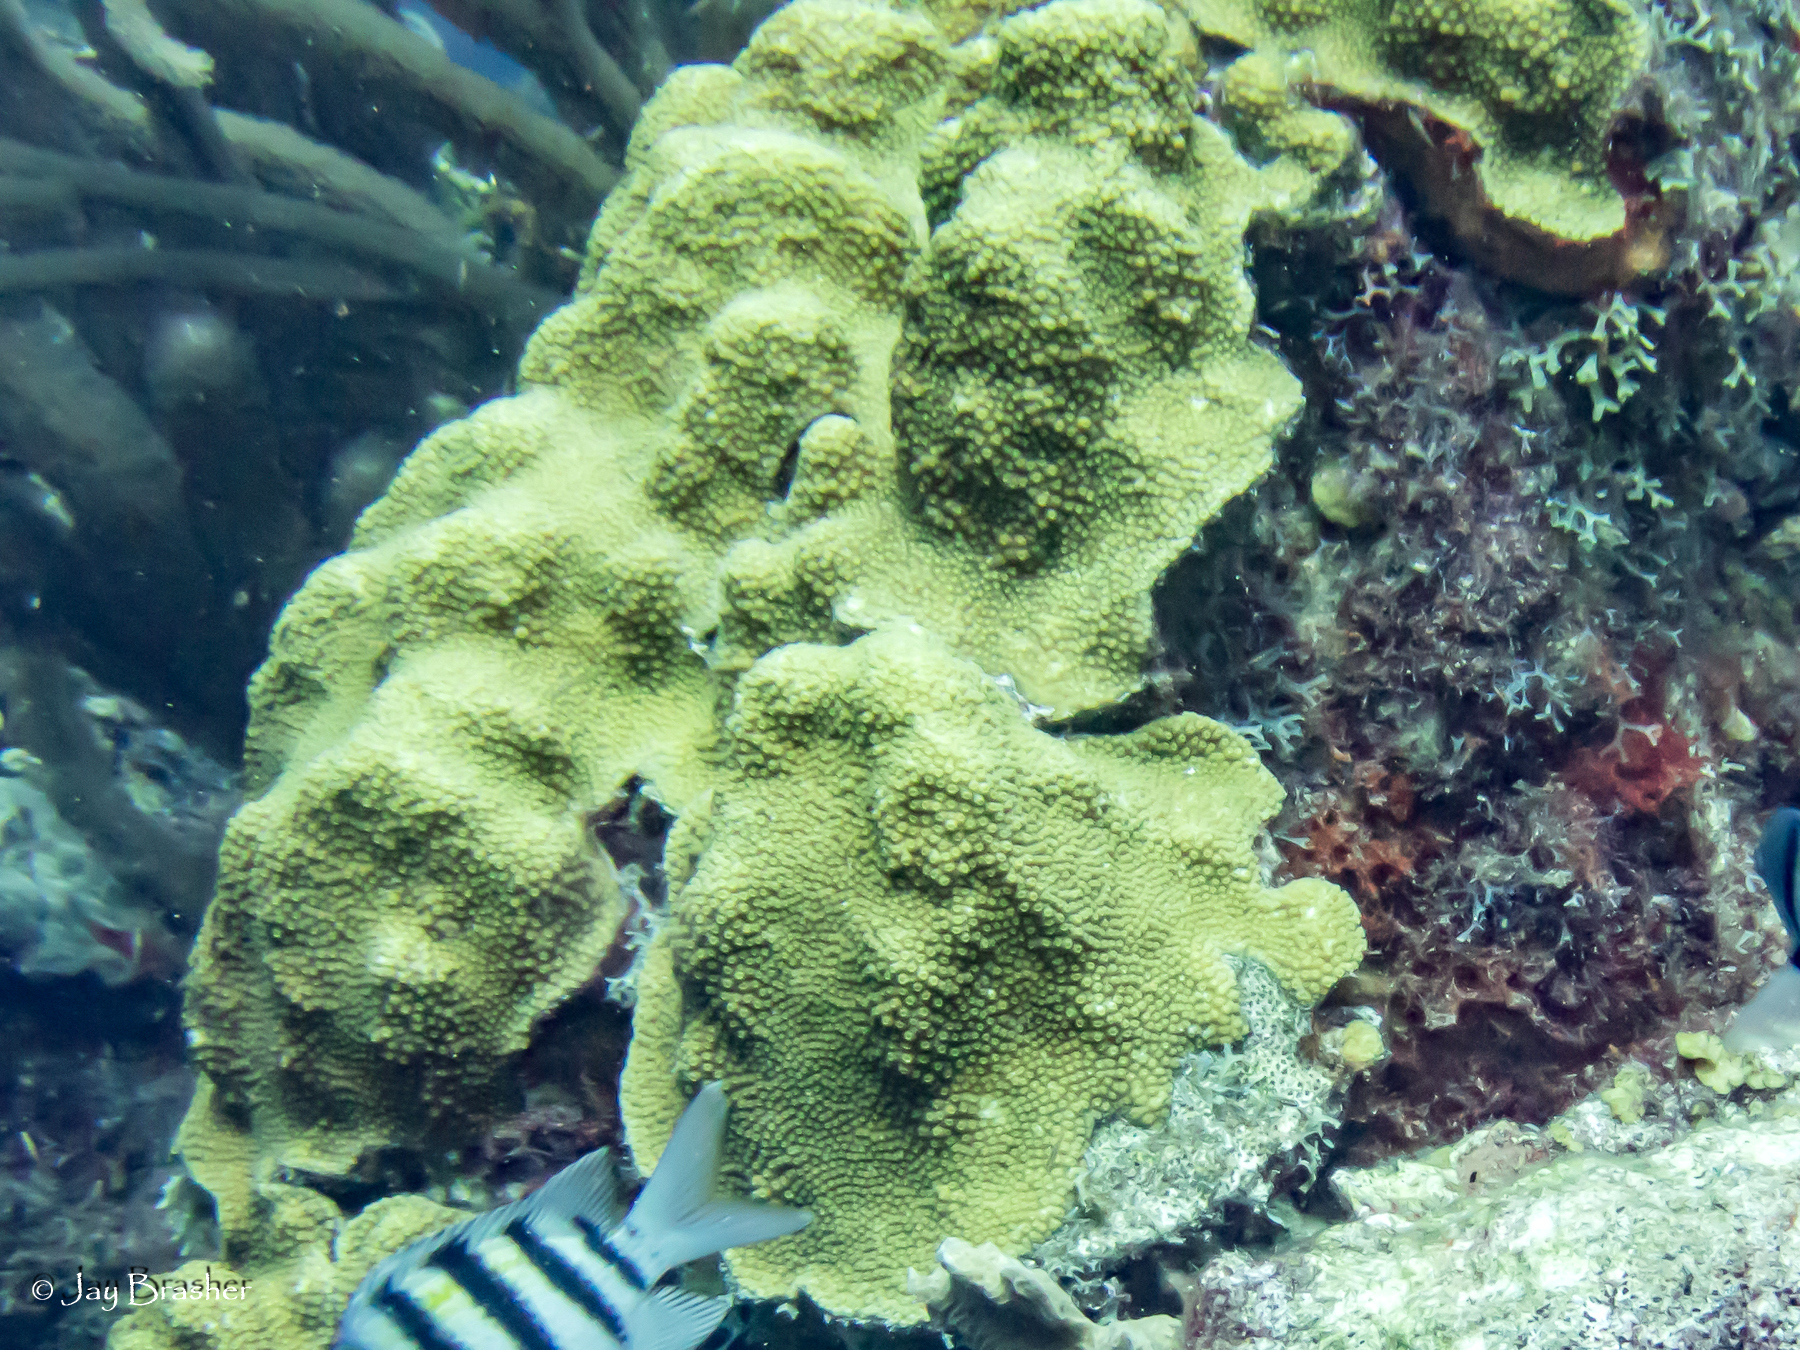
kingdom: Animalia
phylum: Cnidaria
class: Anthozoa
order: Scleractinia
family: Merulinidae
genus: Orbicella
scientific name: Orbicella faveolata
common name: Mountainous star coral
